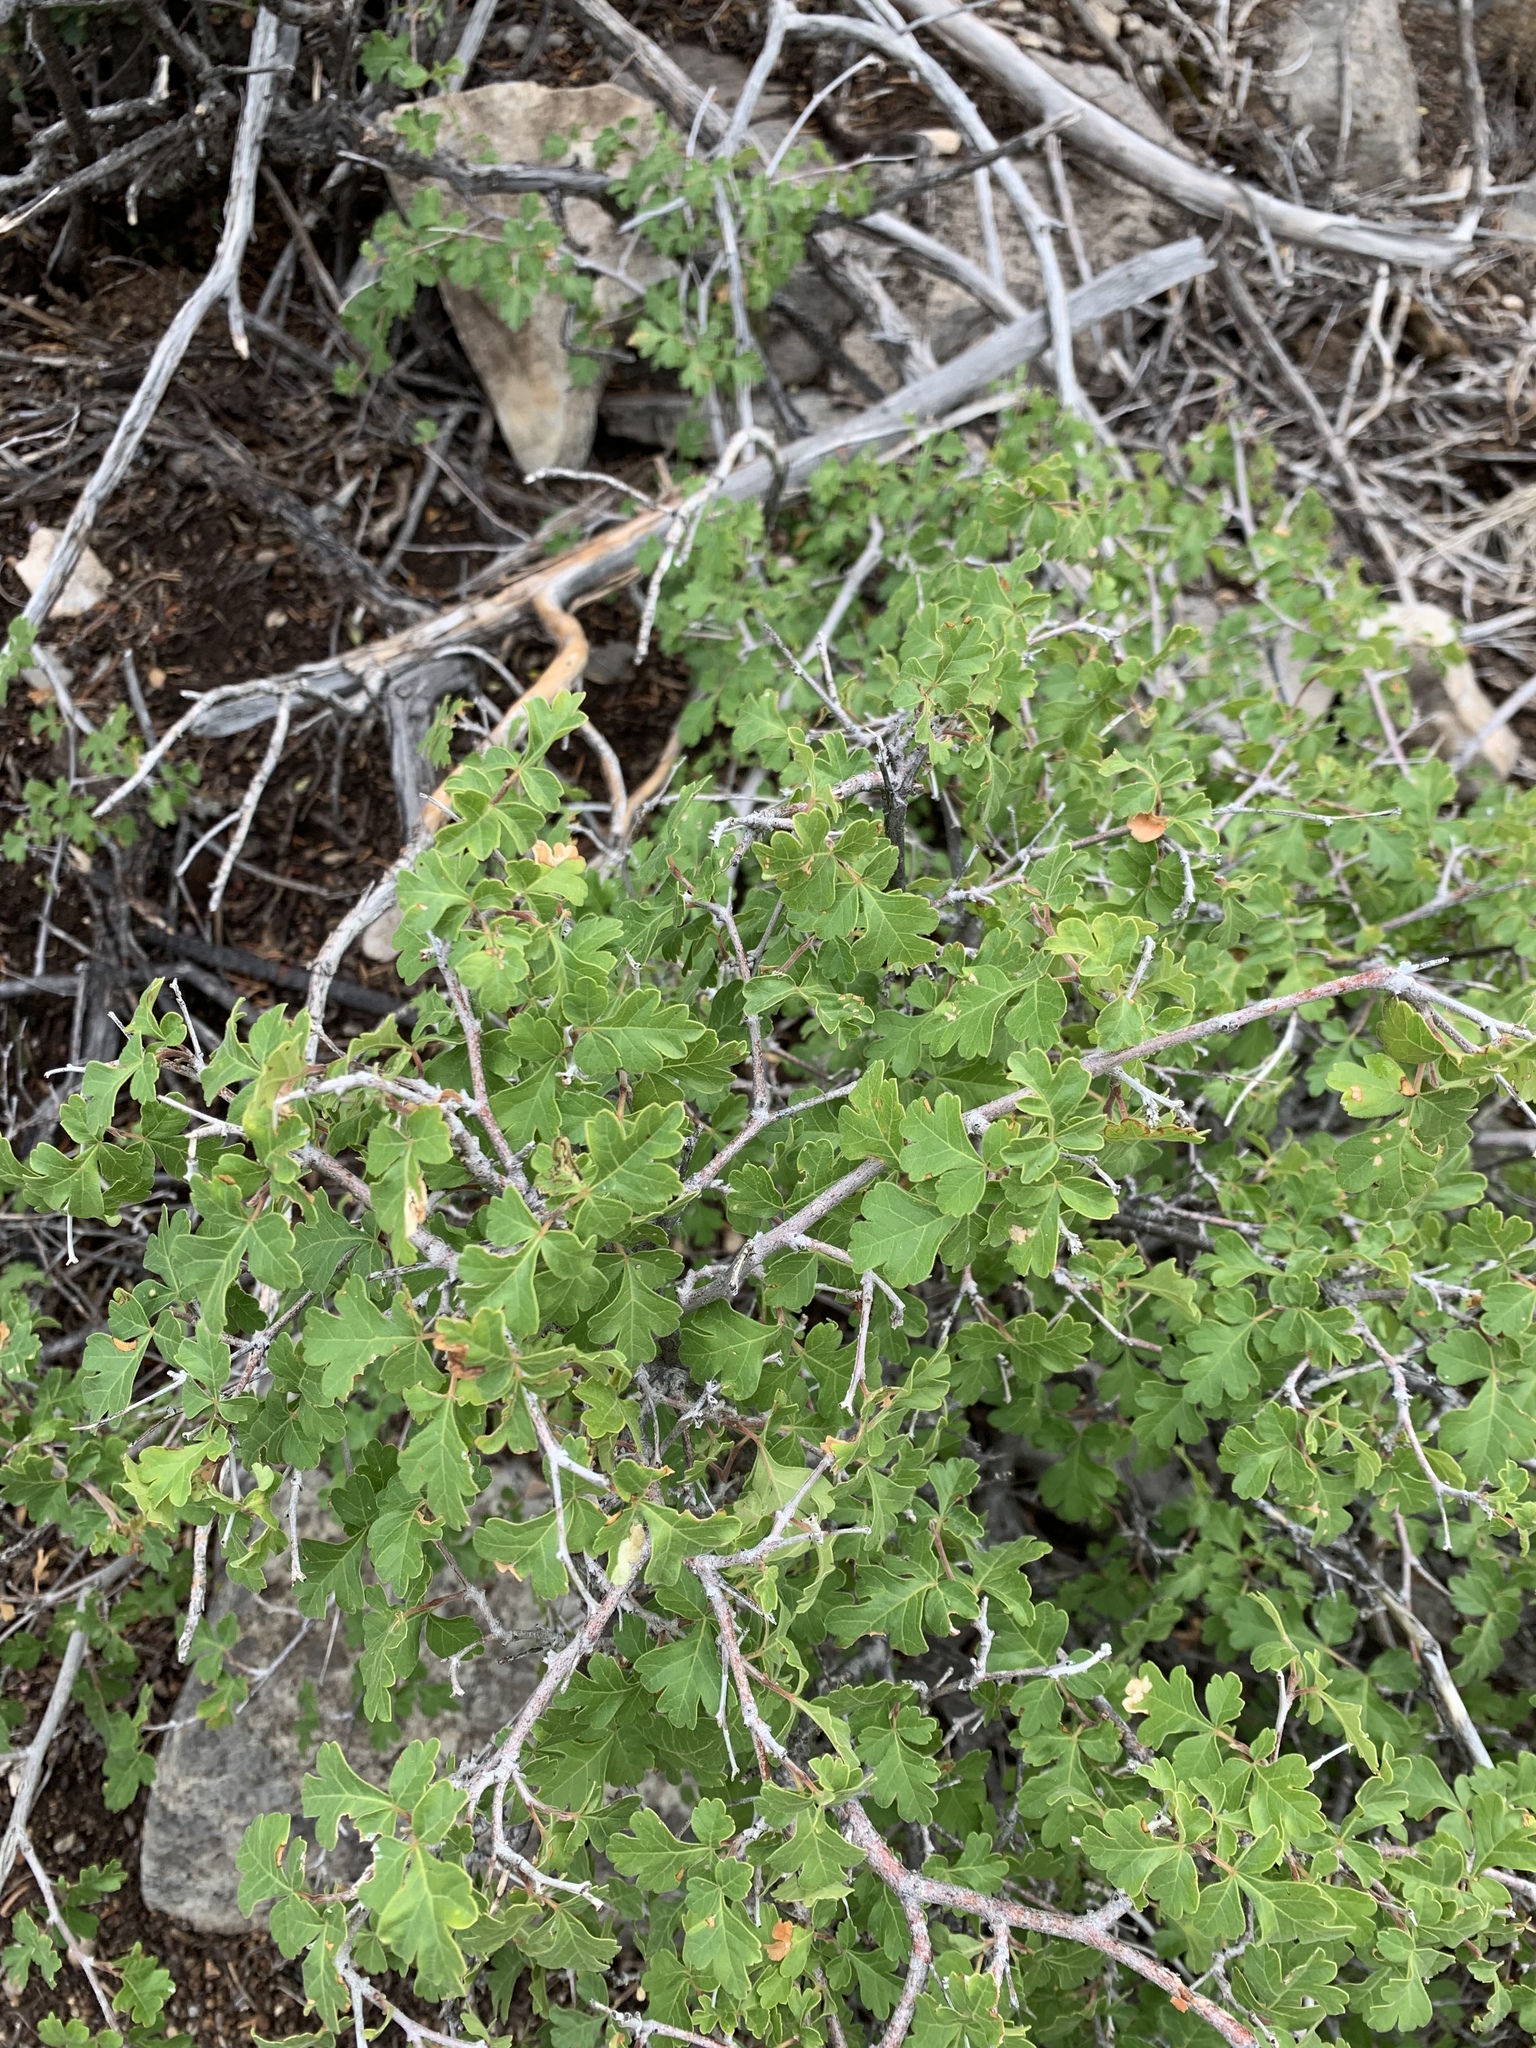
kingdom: Plantae
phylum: Tracheophyta
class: Magnoliopsida
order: Sapindales
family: Anacardiaceae
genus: Rhus
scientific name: Rhus aromatica
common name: Aromatic sumac
